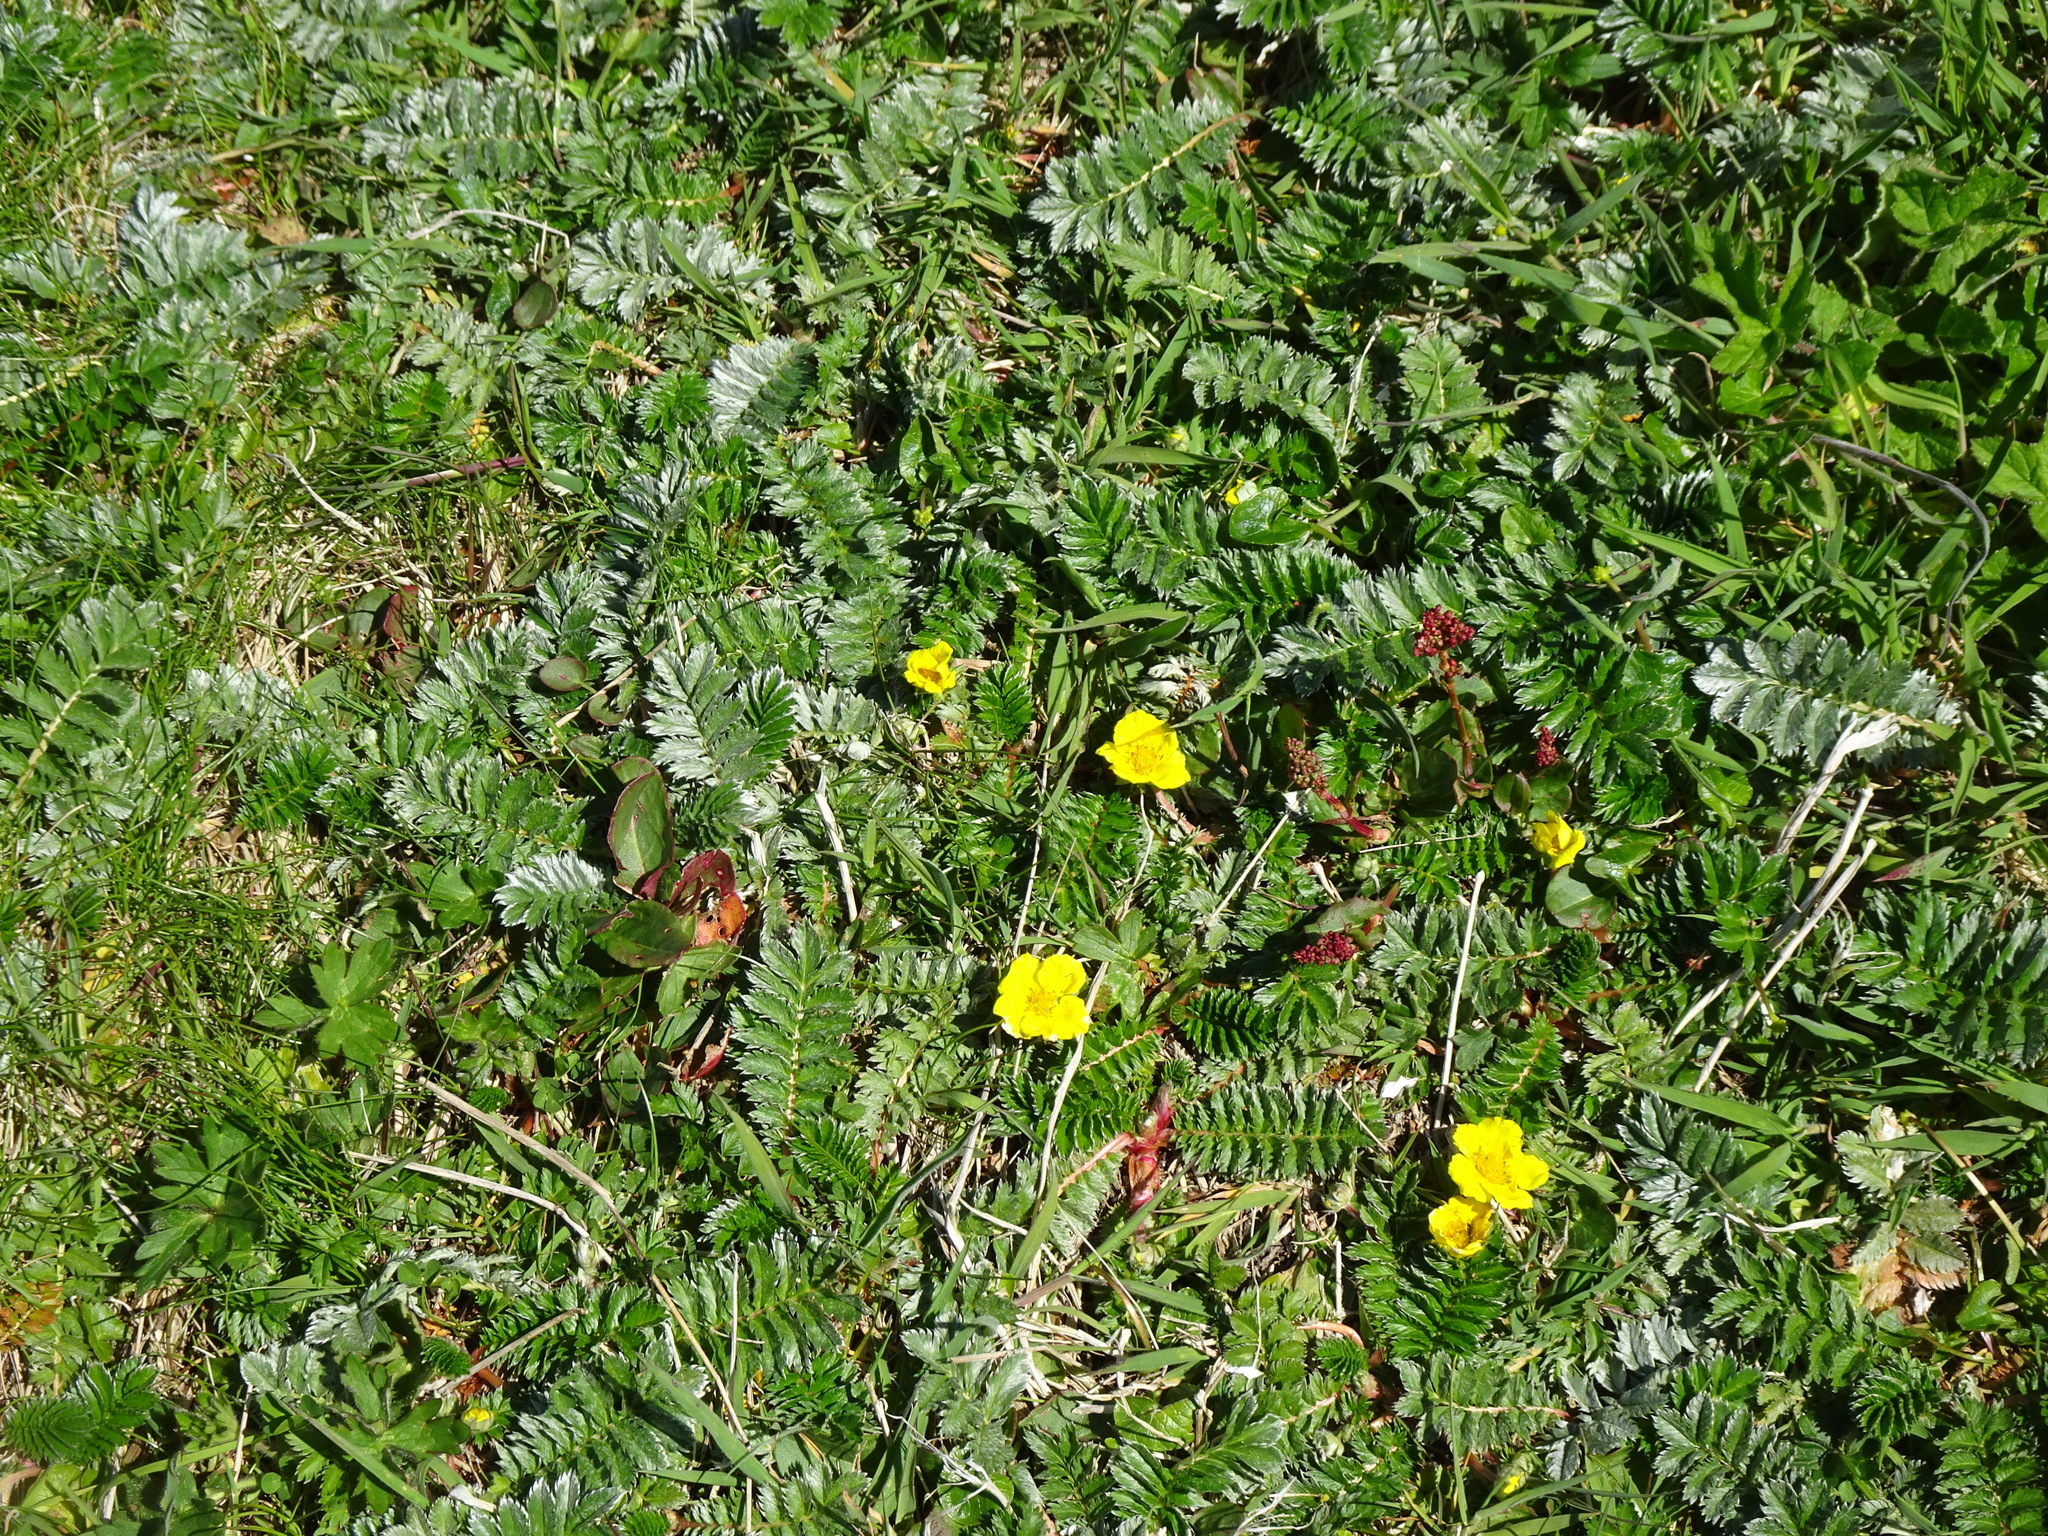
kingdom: Plantae
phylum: Tracheophyta
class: Magnoliopsida
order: Rosales
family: Rosaceae
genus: Argentina
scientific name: Argentina anserina
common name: Common silverweed
